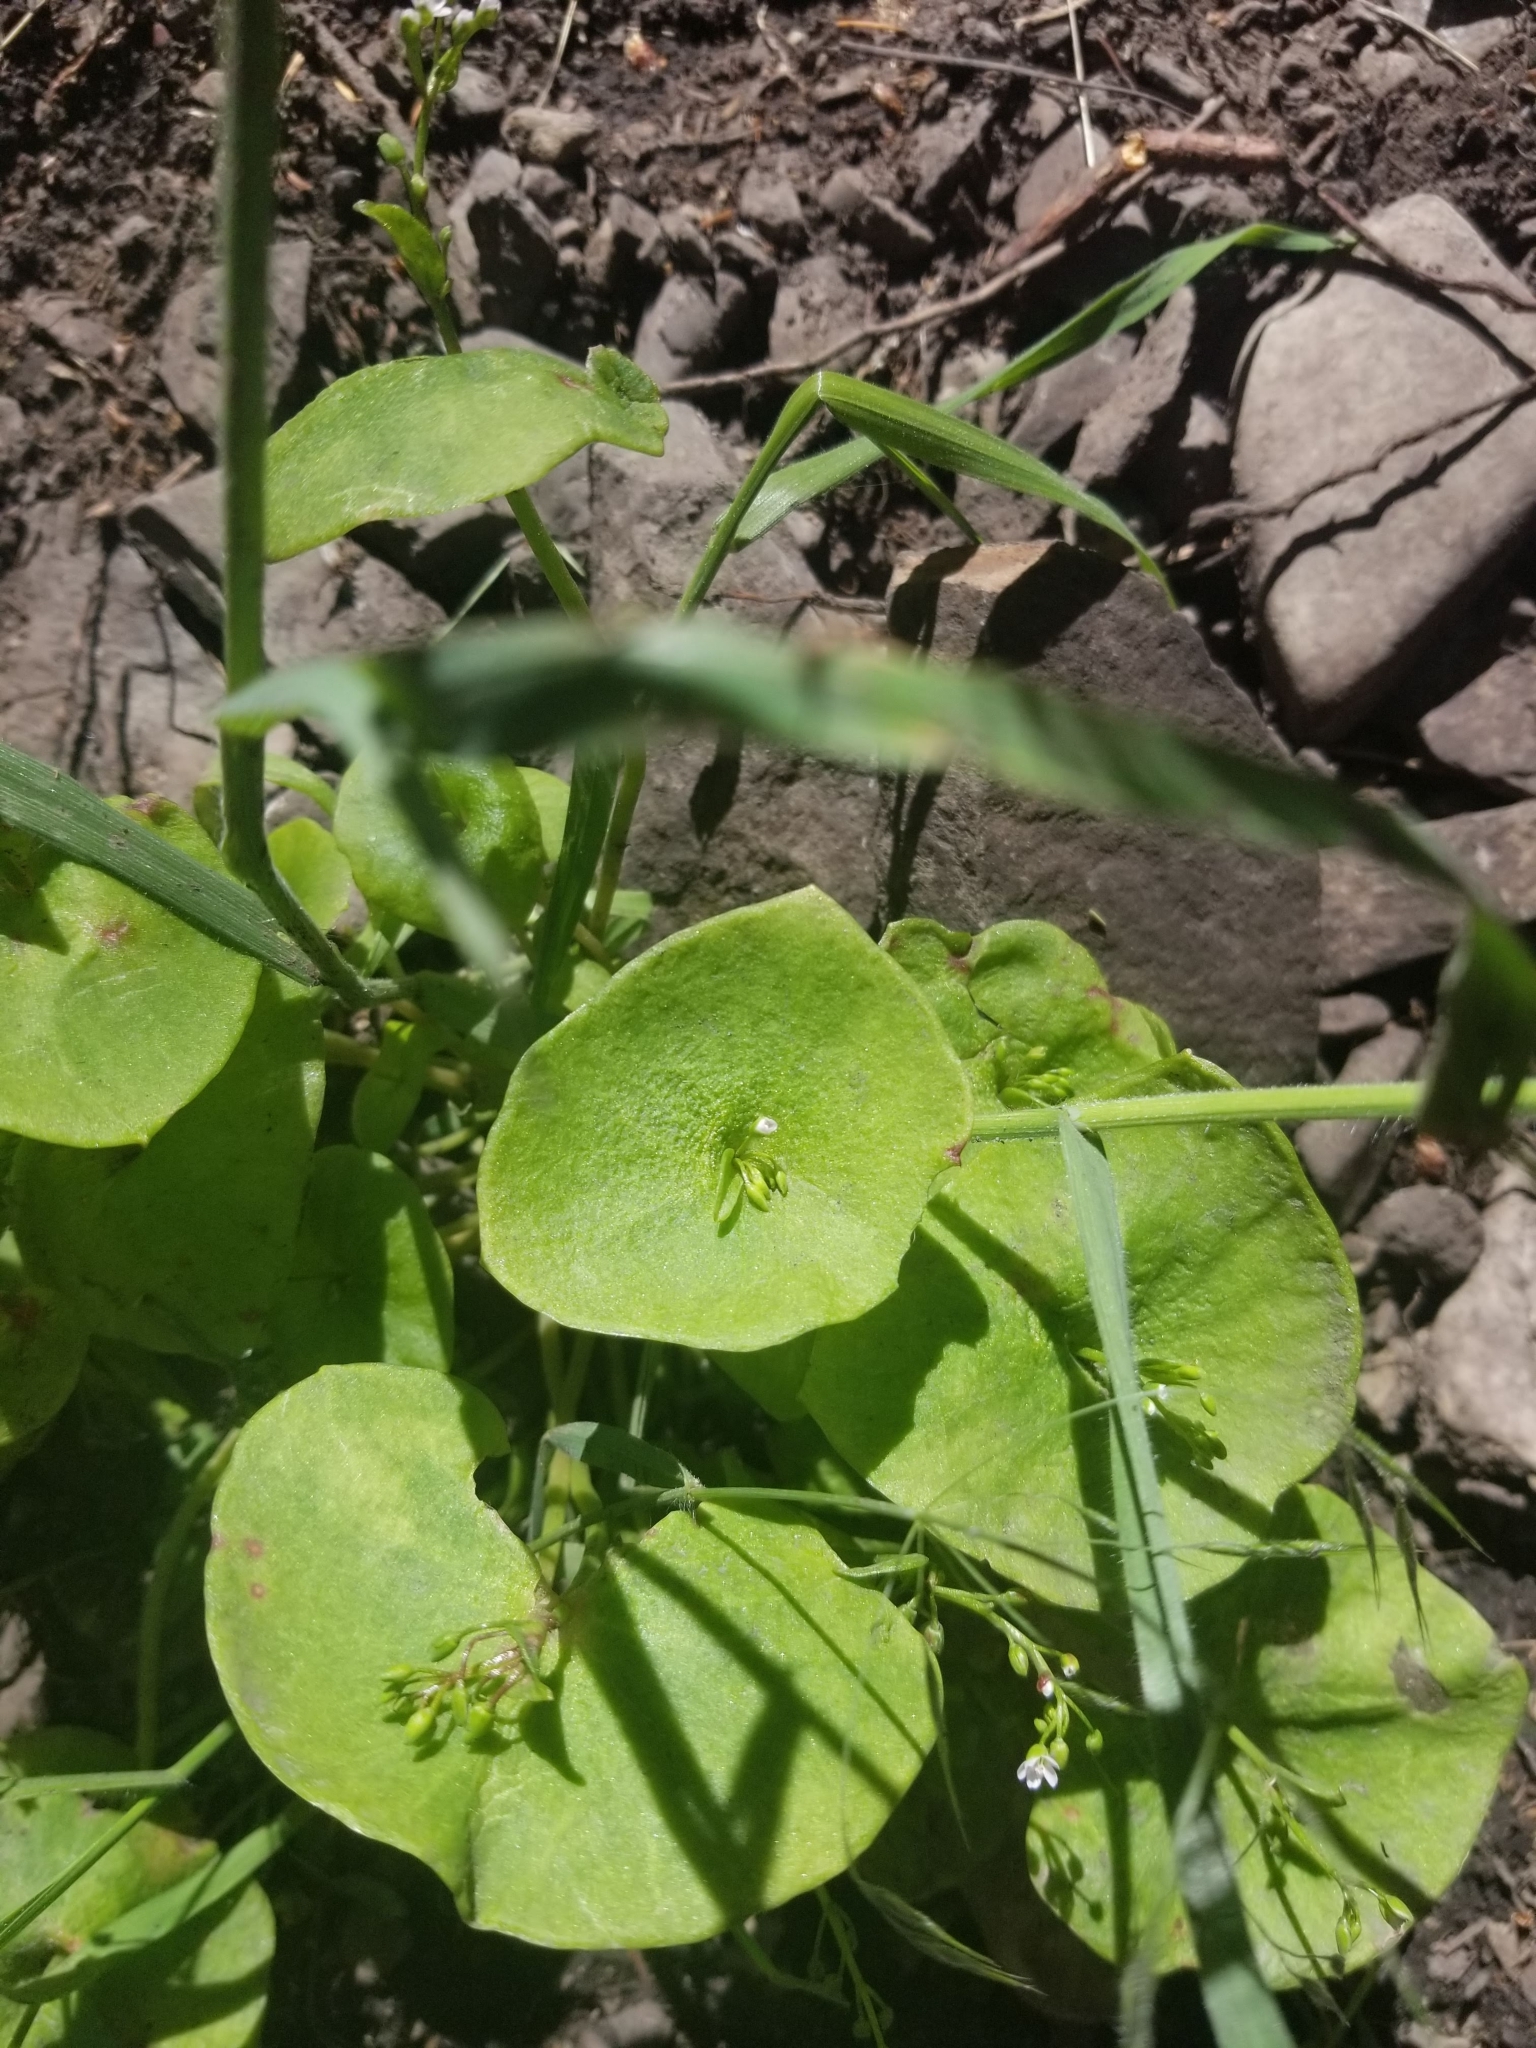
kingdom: Plantae
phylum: Tracheophyta
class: Magnoliopsida
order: Caryophyllales
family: Montiaceae
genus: Claytonia
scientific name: Claytonia perfoliata
